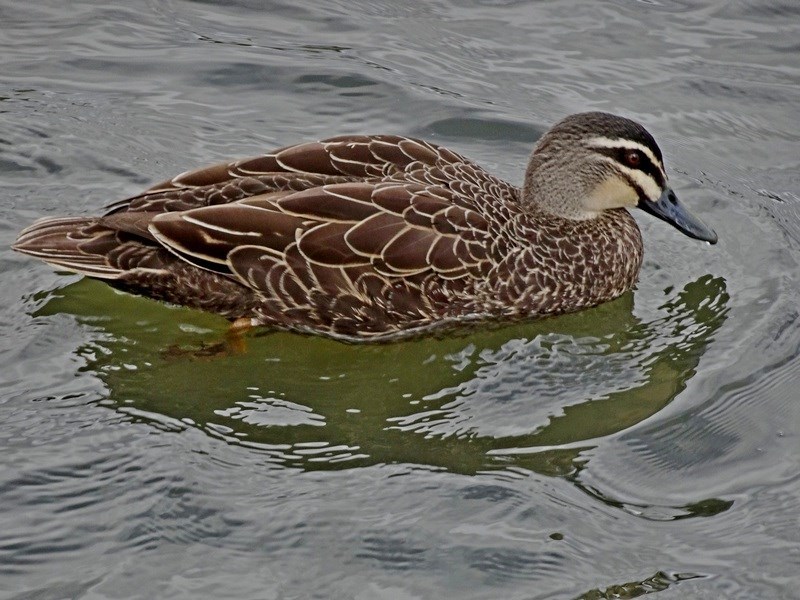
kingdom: Animalia
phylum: Chordata
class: Aves
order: Anseriformes
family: Anatidae
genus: Anas
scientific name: Anas
